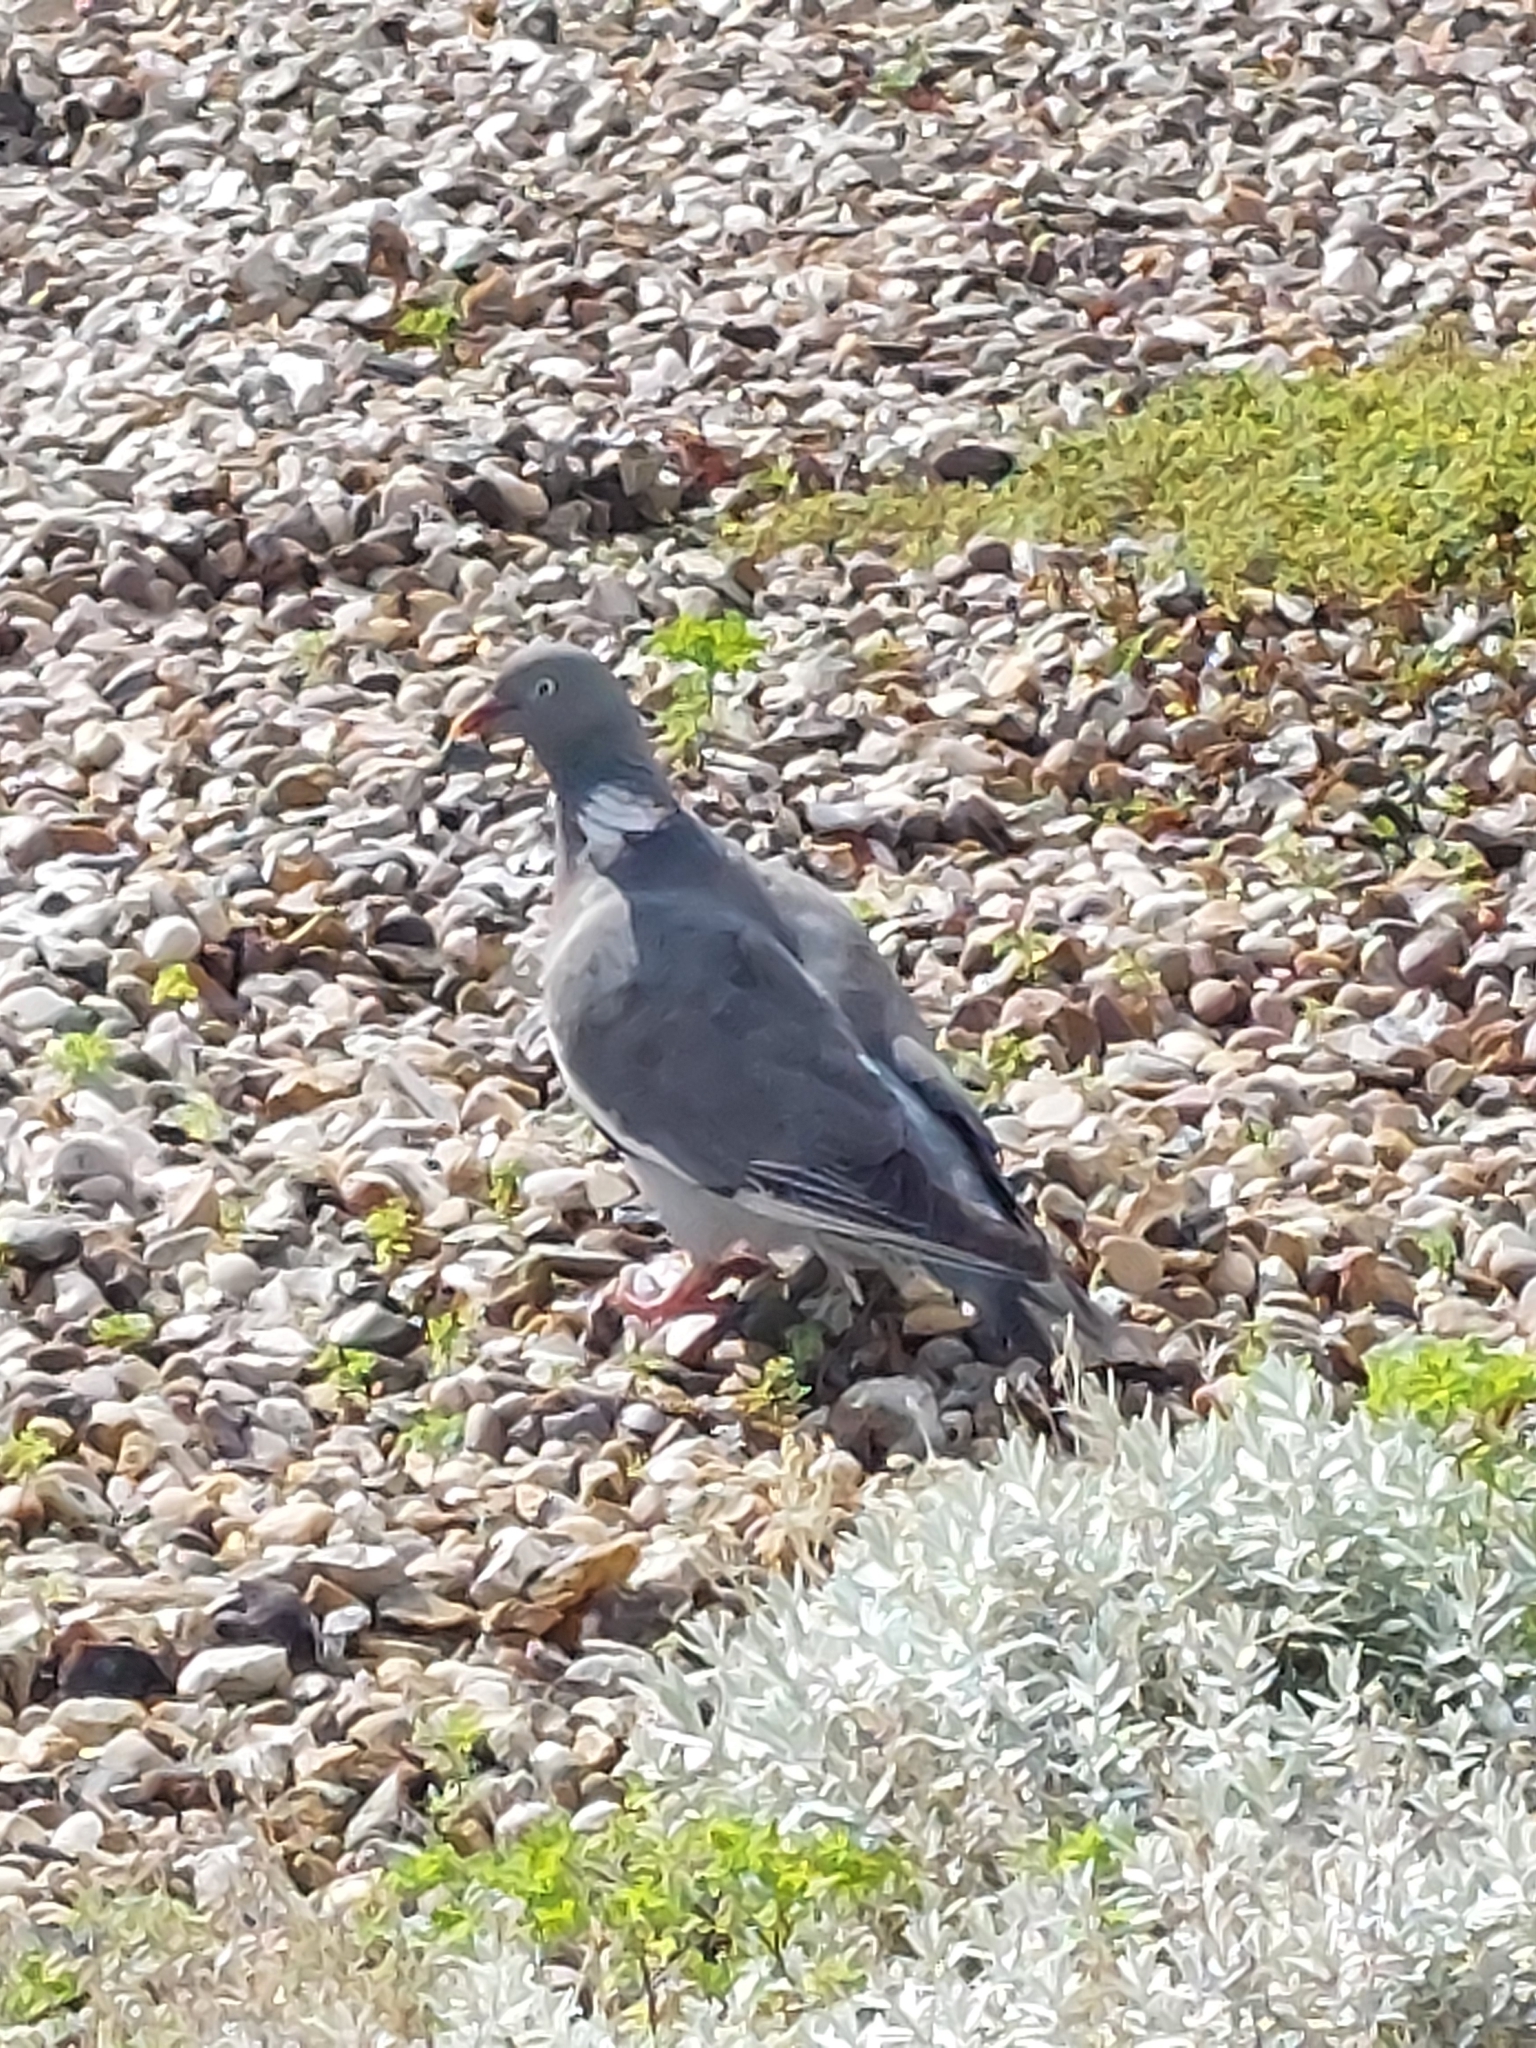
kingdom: Animalia
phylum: Chordata
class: Aves
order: Columbiformes
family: Columbidae
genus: Columba
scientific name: Columba palumbus
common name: Common wood pigeon
